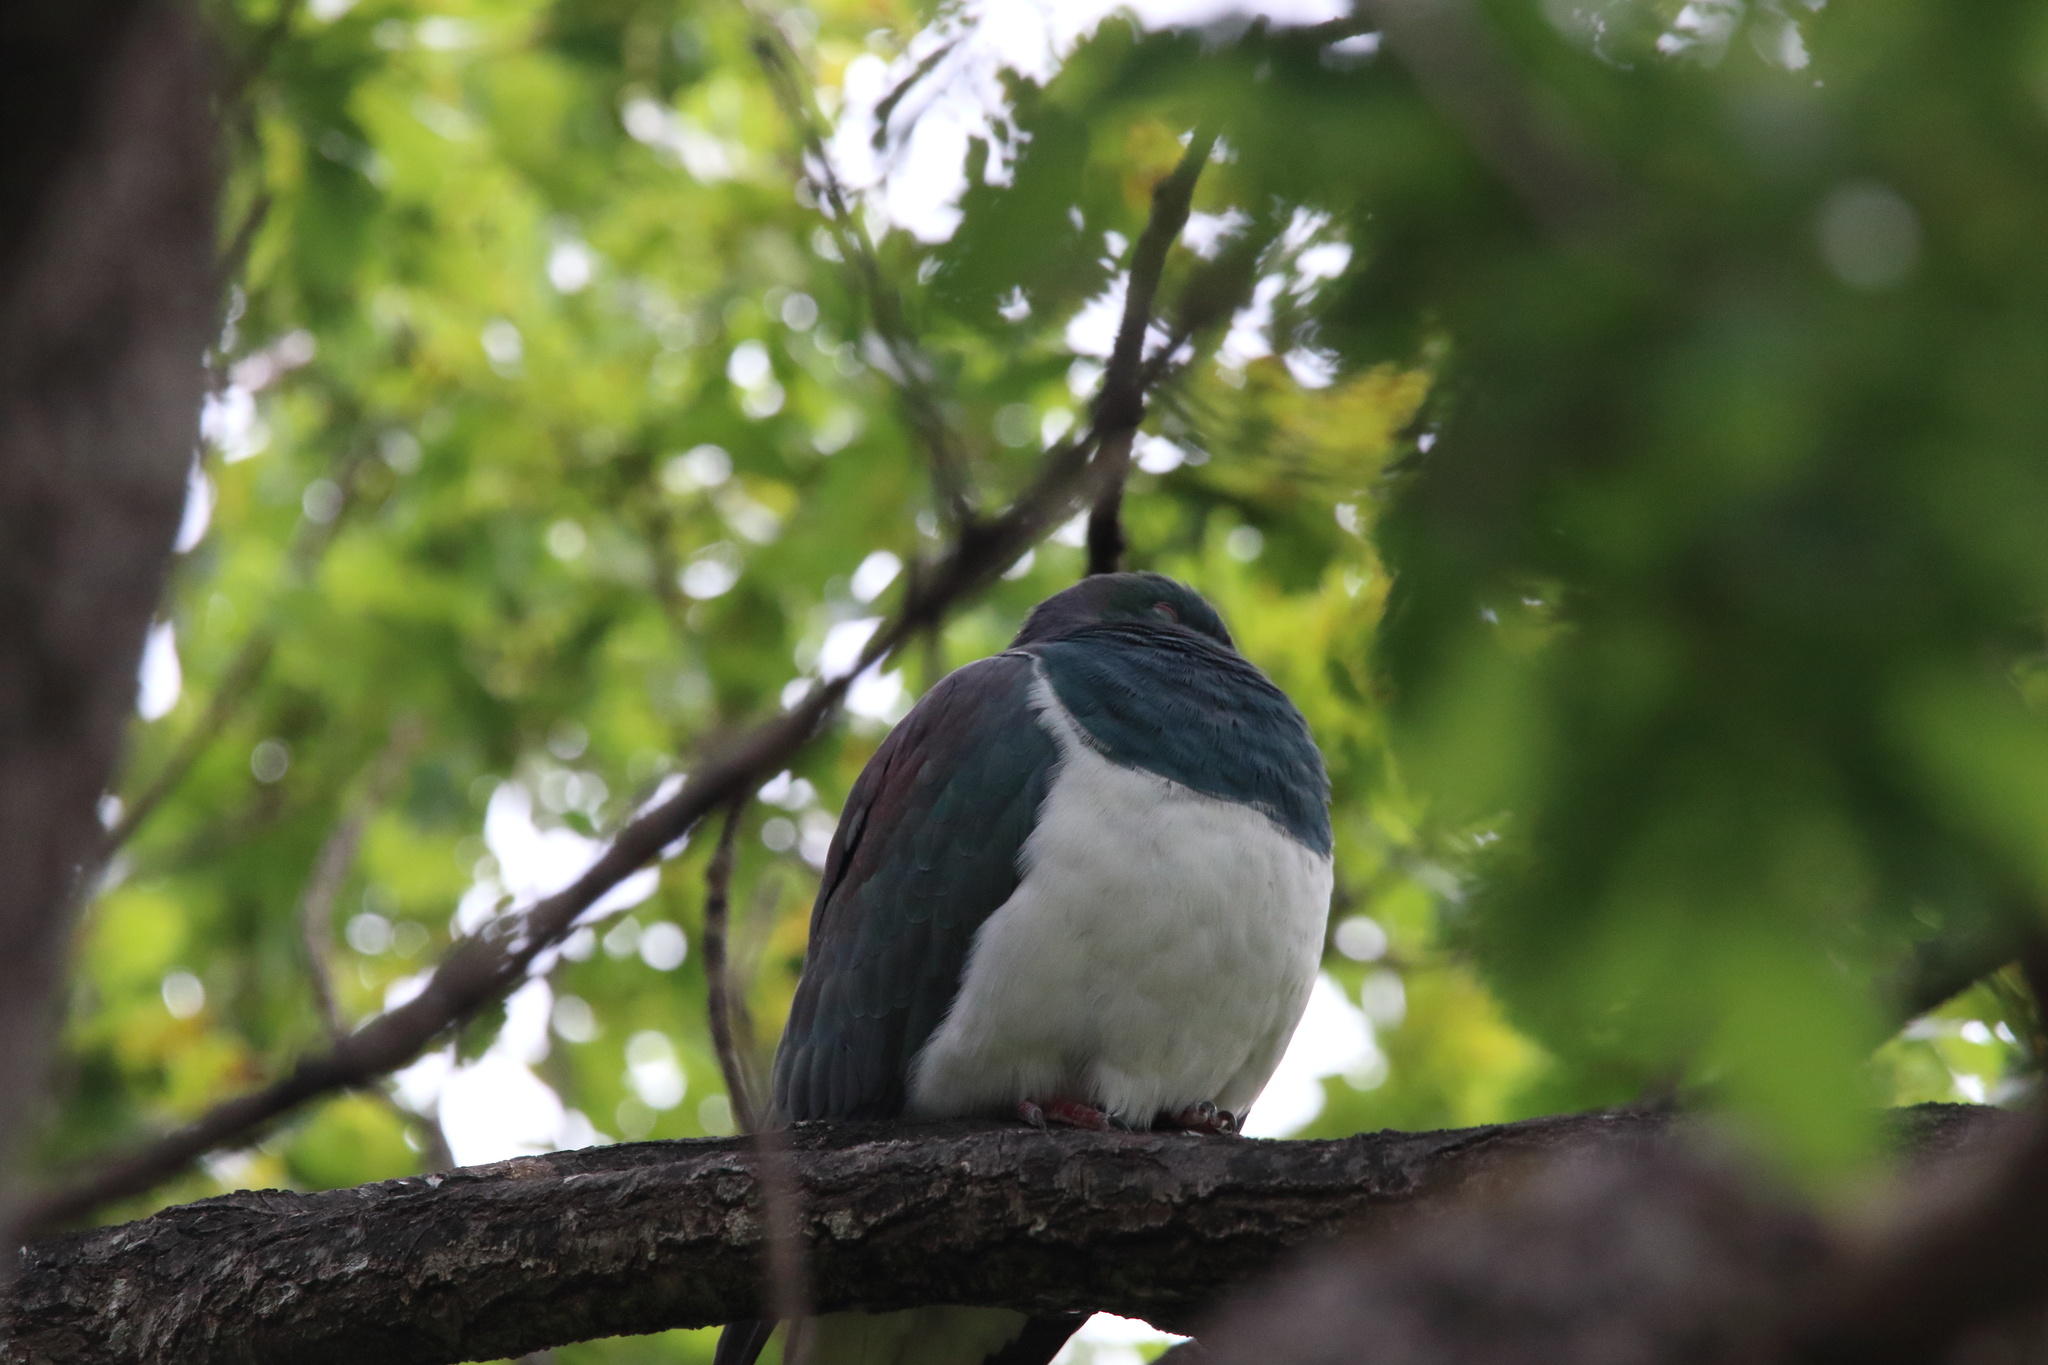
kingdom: Animalia
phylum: Chordata
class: Aves
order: Columbiformes
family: Columbidae
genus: Hemiphaga
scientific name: Hemiphaga novaeseelandiae
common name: New zealand pigeon
